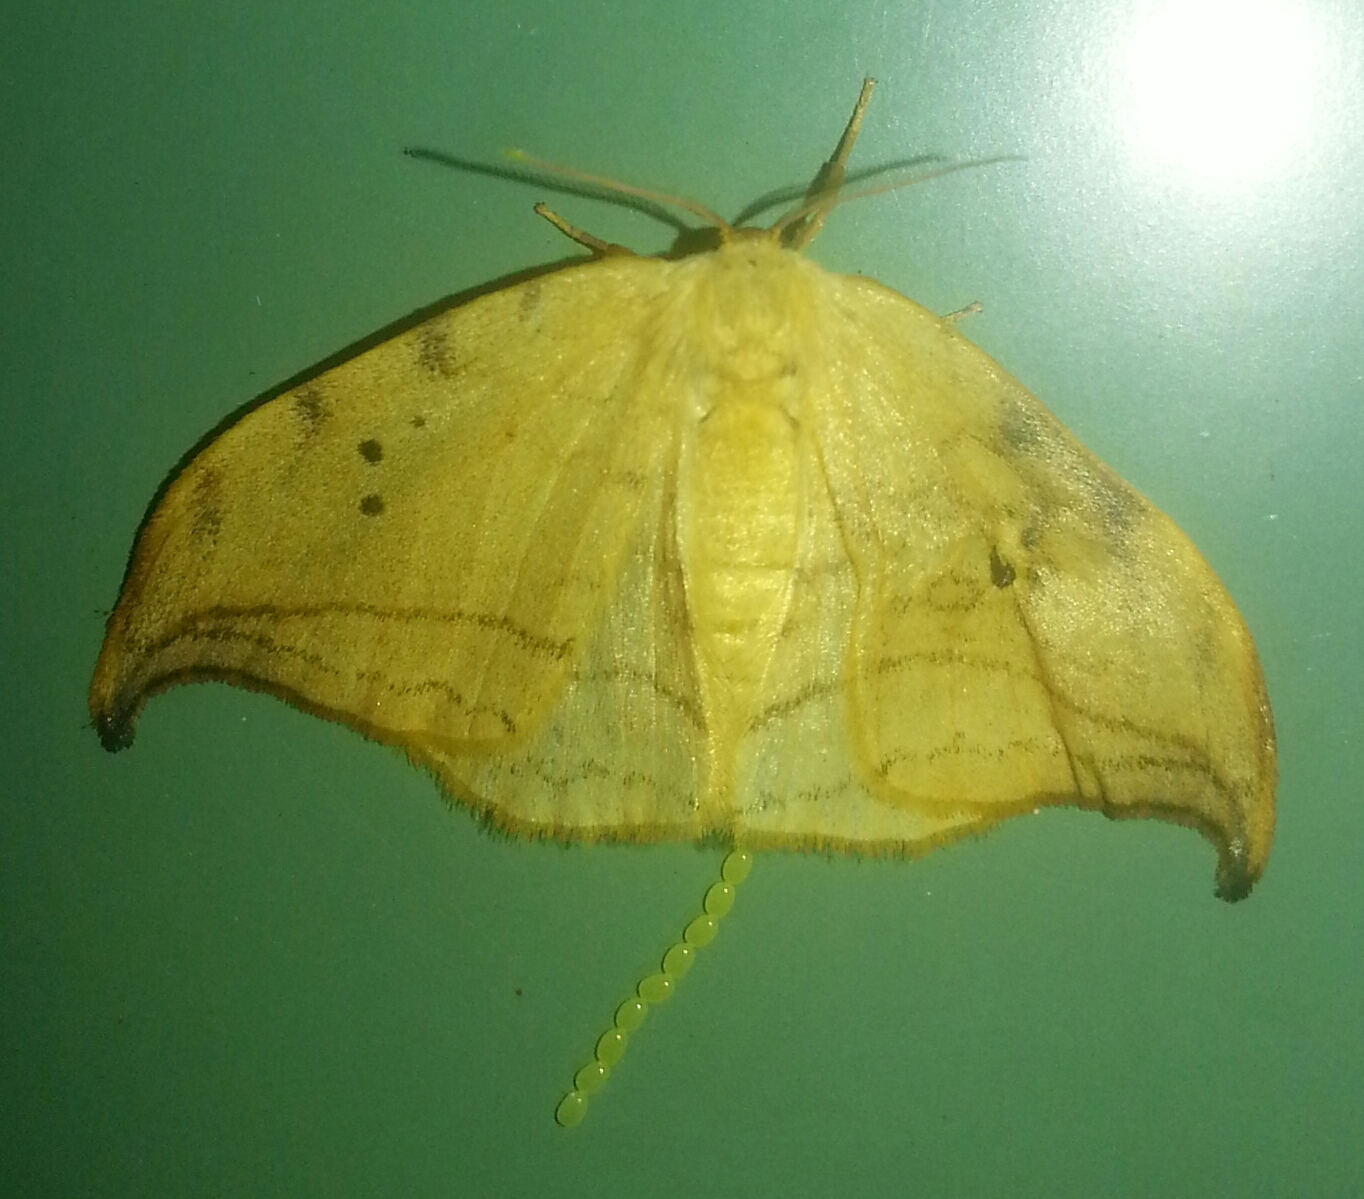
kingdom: Animalia
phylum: Arthropoda
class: Insecta
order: Lepidoptera
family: Drepanidae
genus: Drepana
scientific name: Drepana arcuata
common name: Arched hooktip moth
